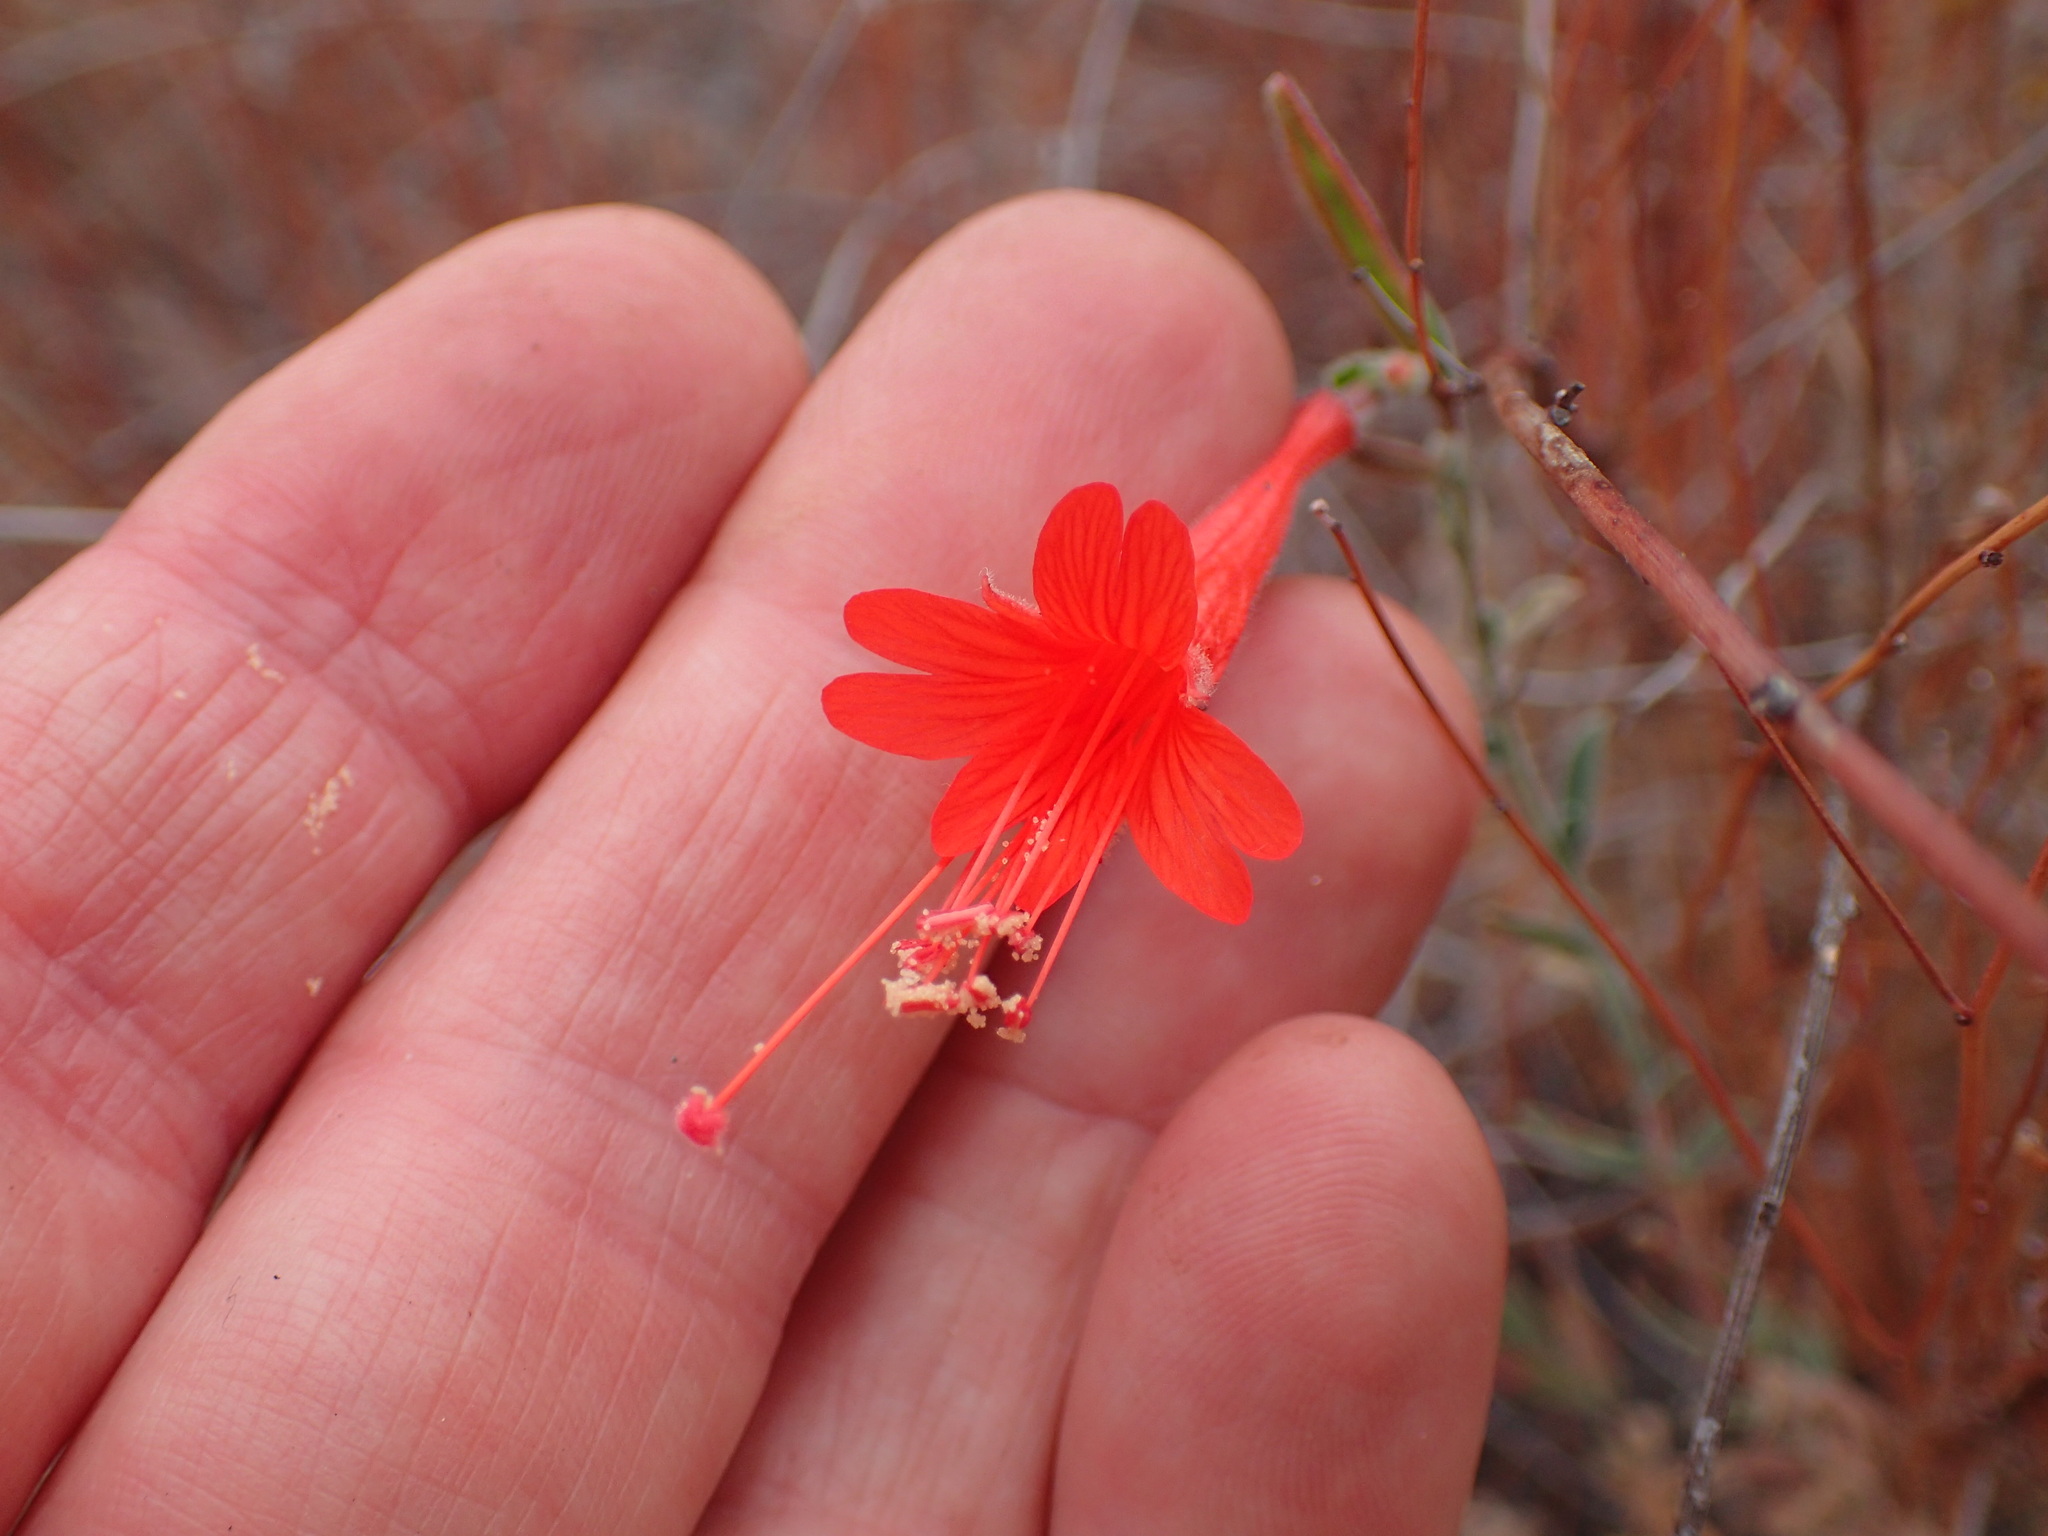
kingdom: Plantae
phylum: Tracheophyta
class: Magnoliopsida
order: Myrtales
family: Onagraceae
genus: Epilobium
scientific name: Epilobium canum
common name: California-fuchsia
